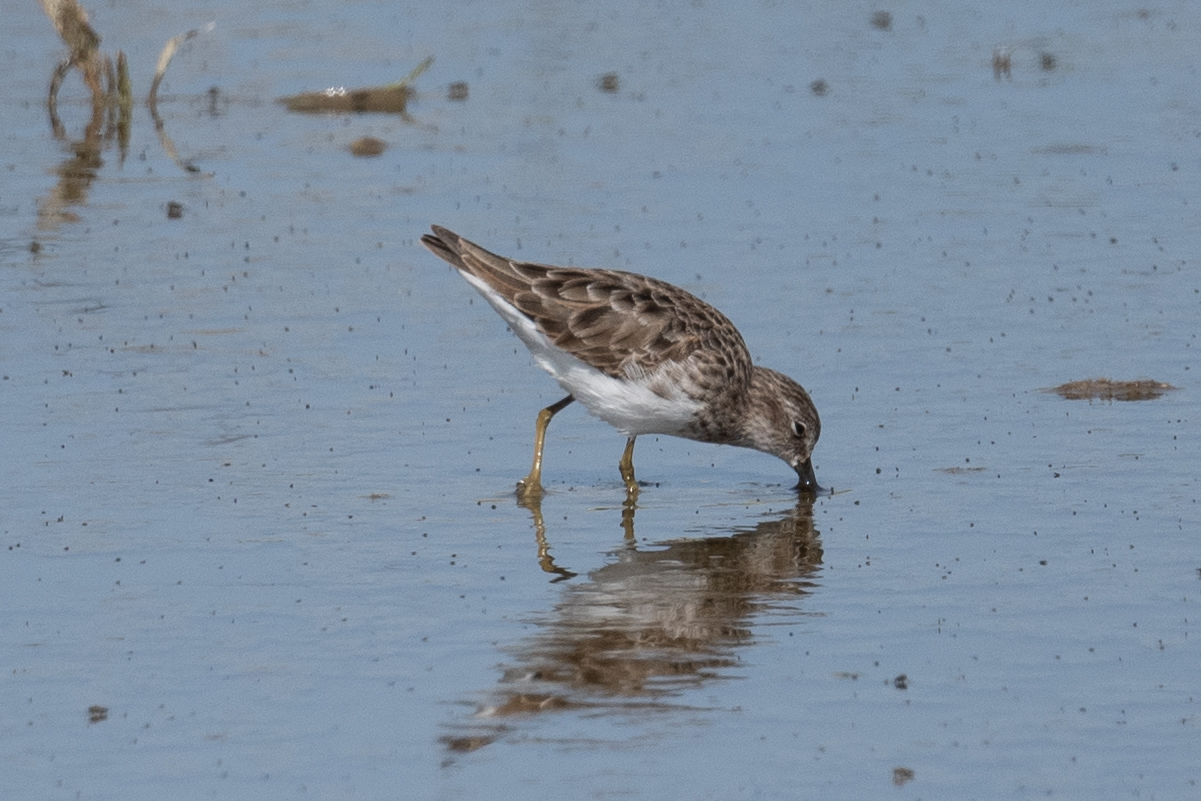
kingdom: Animalia
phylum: Chordata
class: Aves
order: Charadriiformes
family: Scolopacidae
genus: Calidris
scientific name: Calidris minutilla
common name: Least sandpiper
